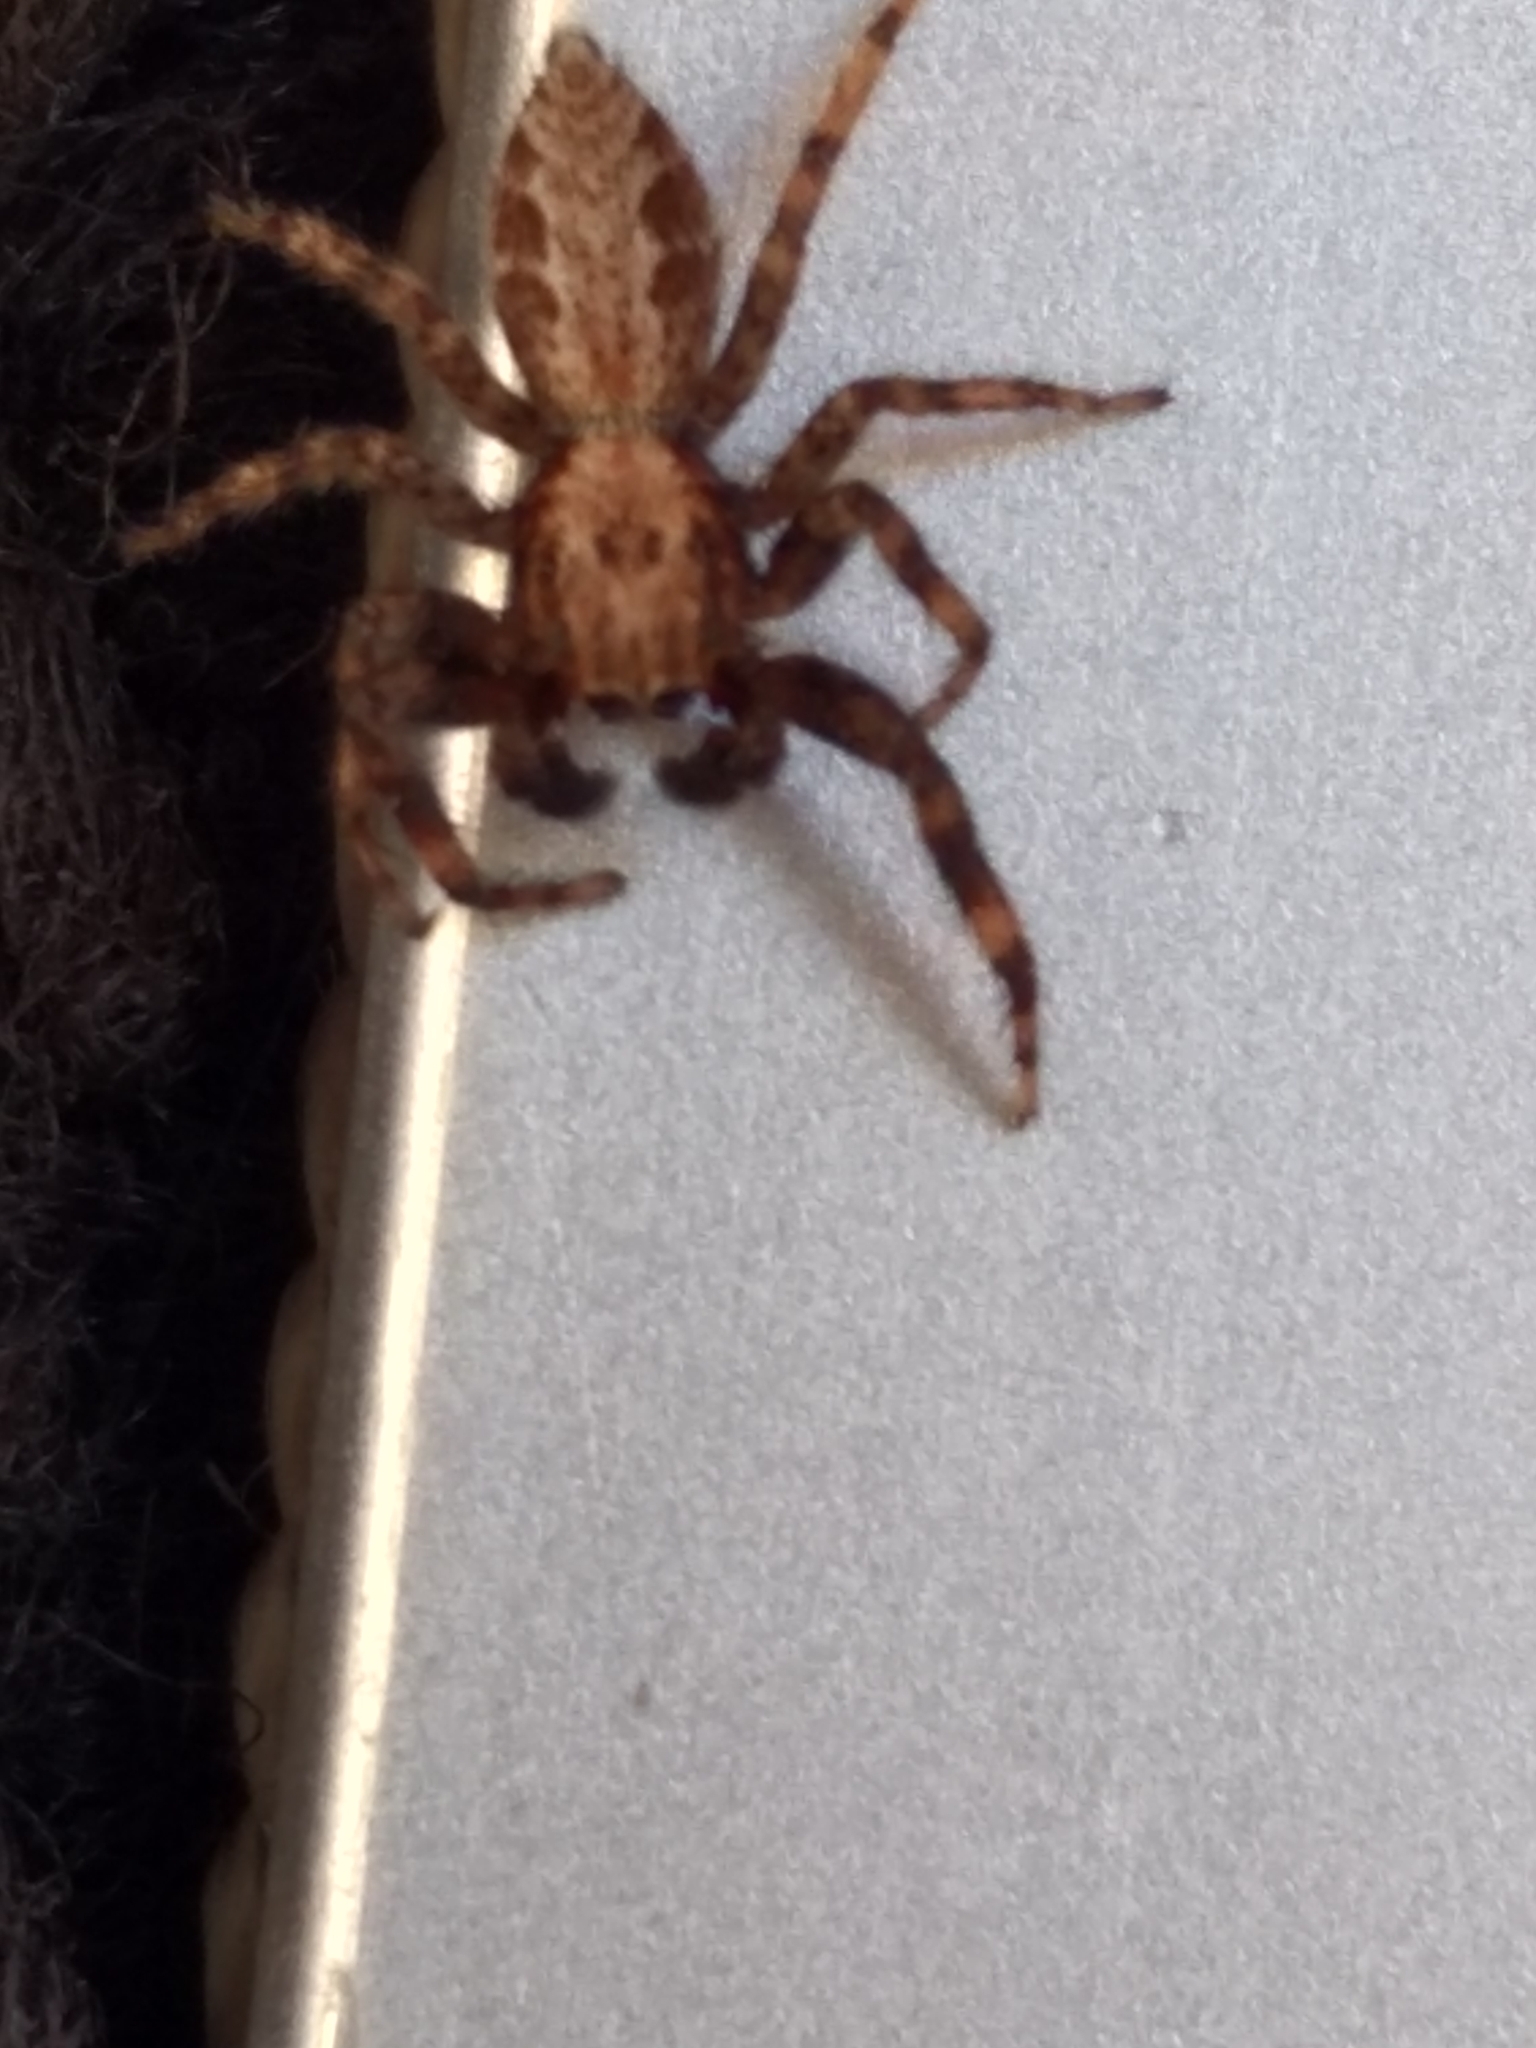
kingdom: Animalia
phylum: Arthropoda
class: Arachnida
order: Araneae
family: Salticidae
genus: Platycryptus
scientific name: Platycryptus californicus
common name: Jumping spiders
